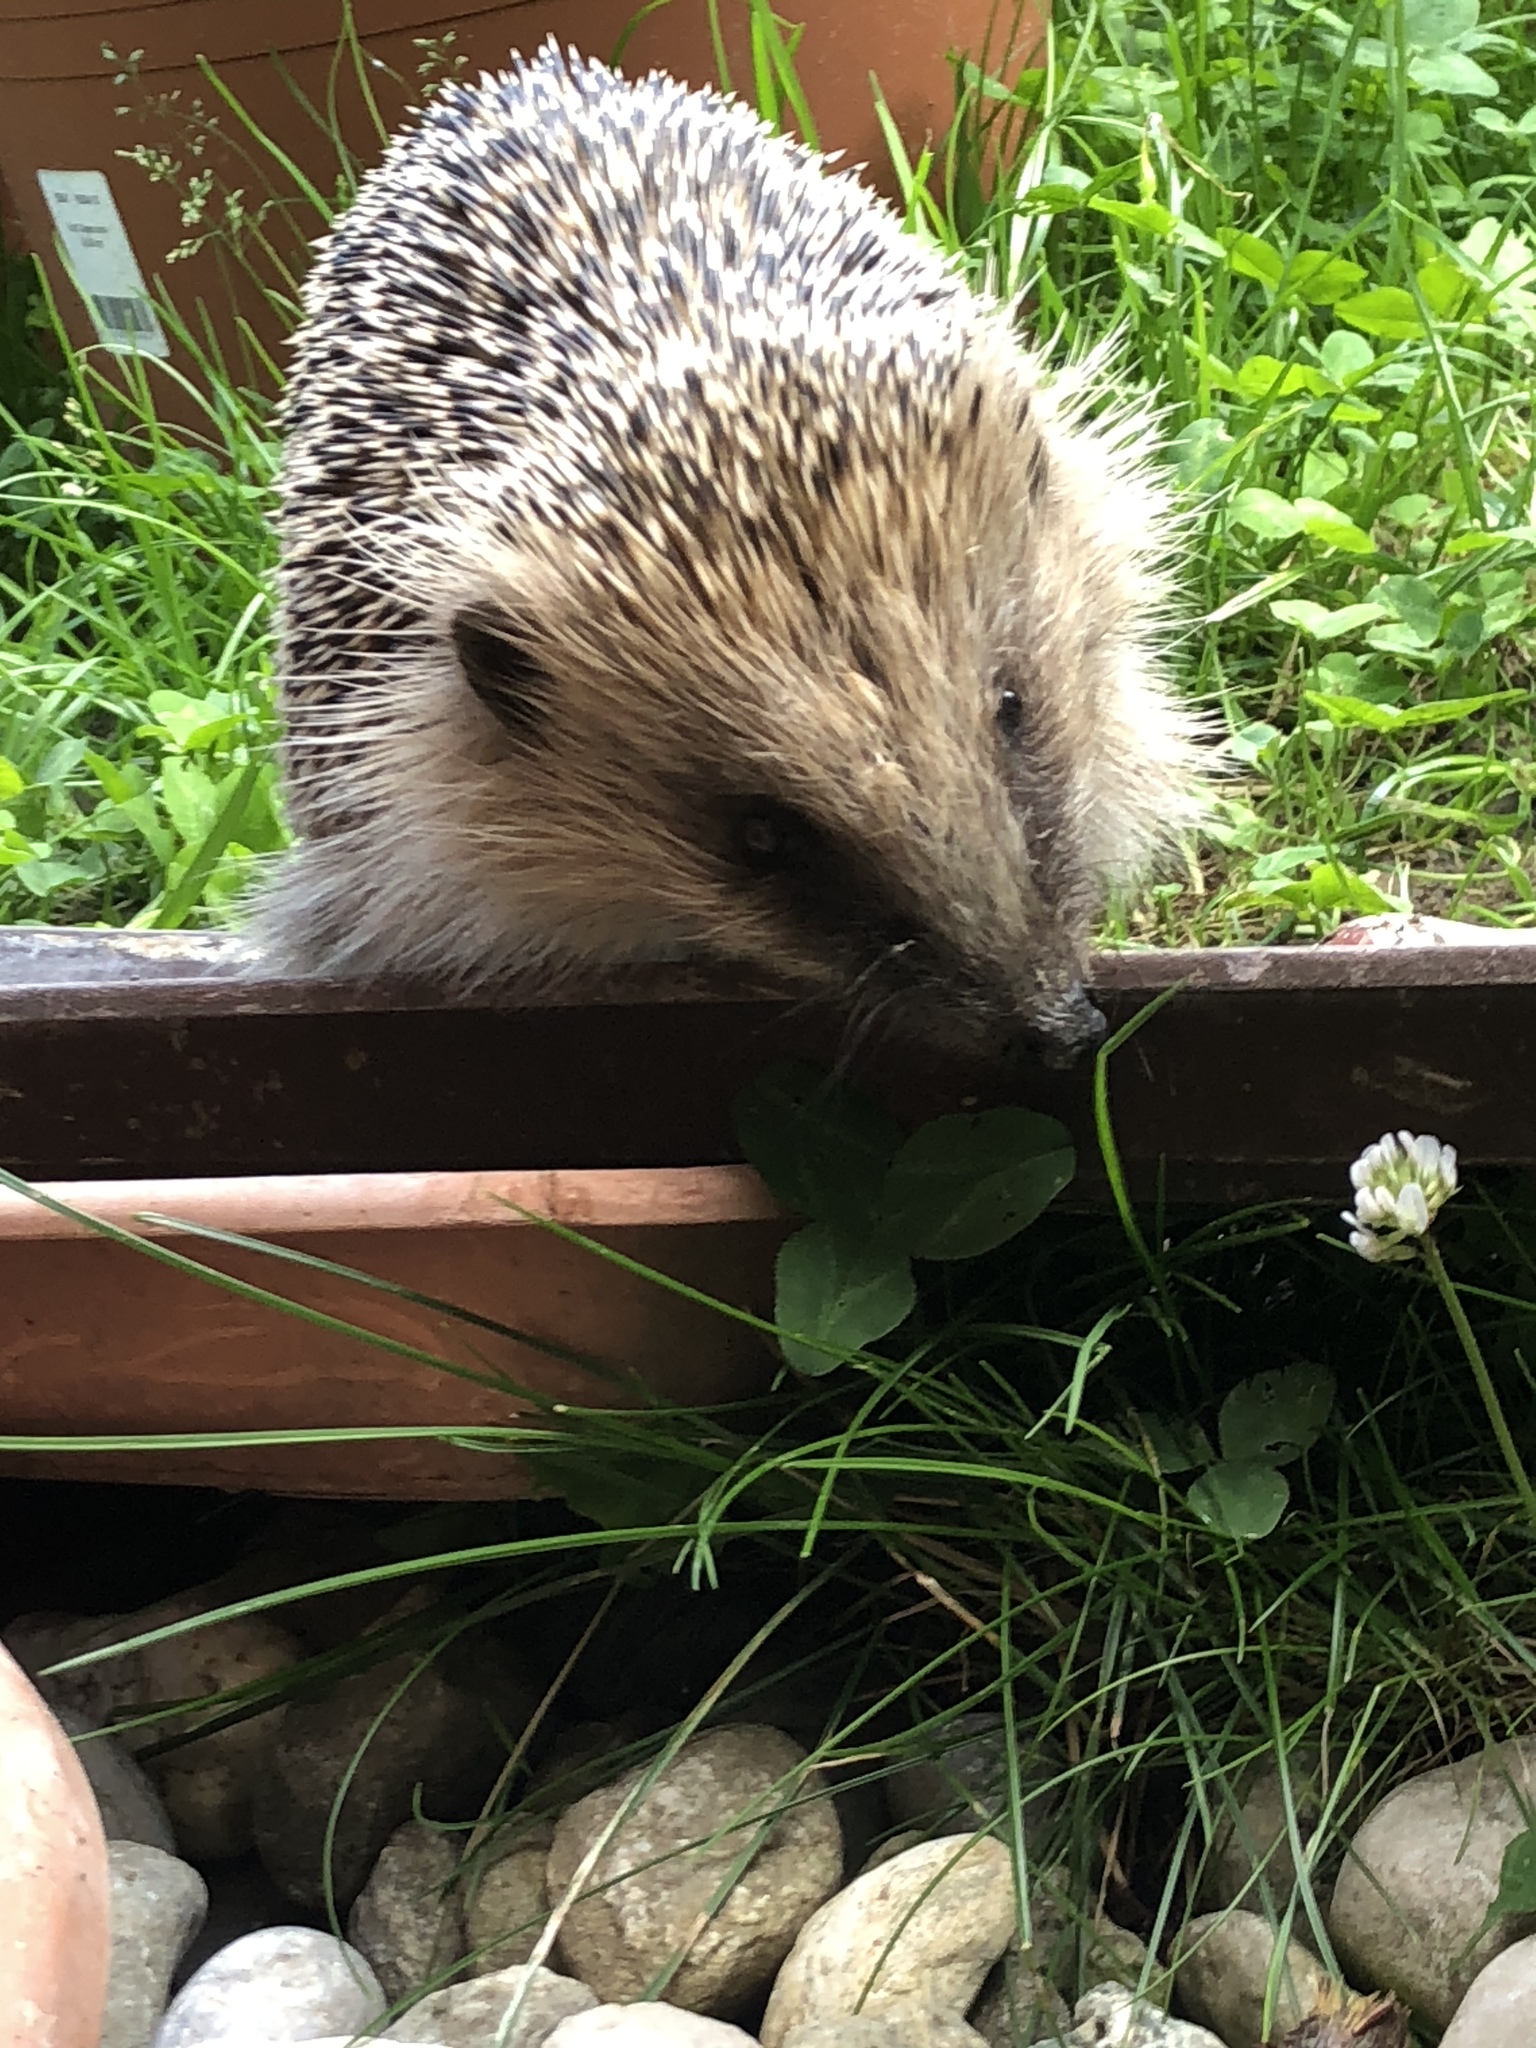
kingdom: Animalia
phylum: Chordata
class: Mammalia
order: Erinaceomorpha
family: Erinaceidae
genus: Erinaceus
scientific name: Erinaceus europaeus
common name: West european hedgehog
